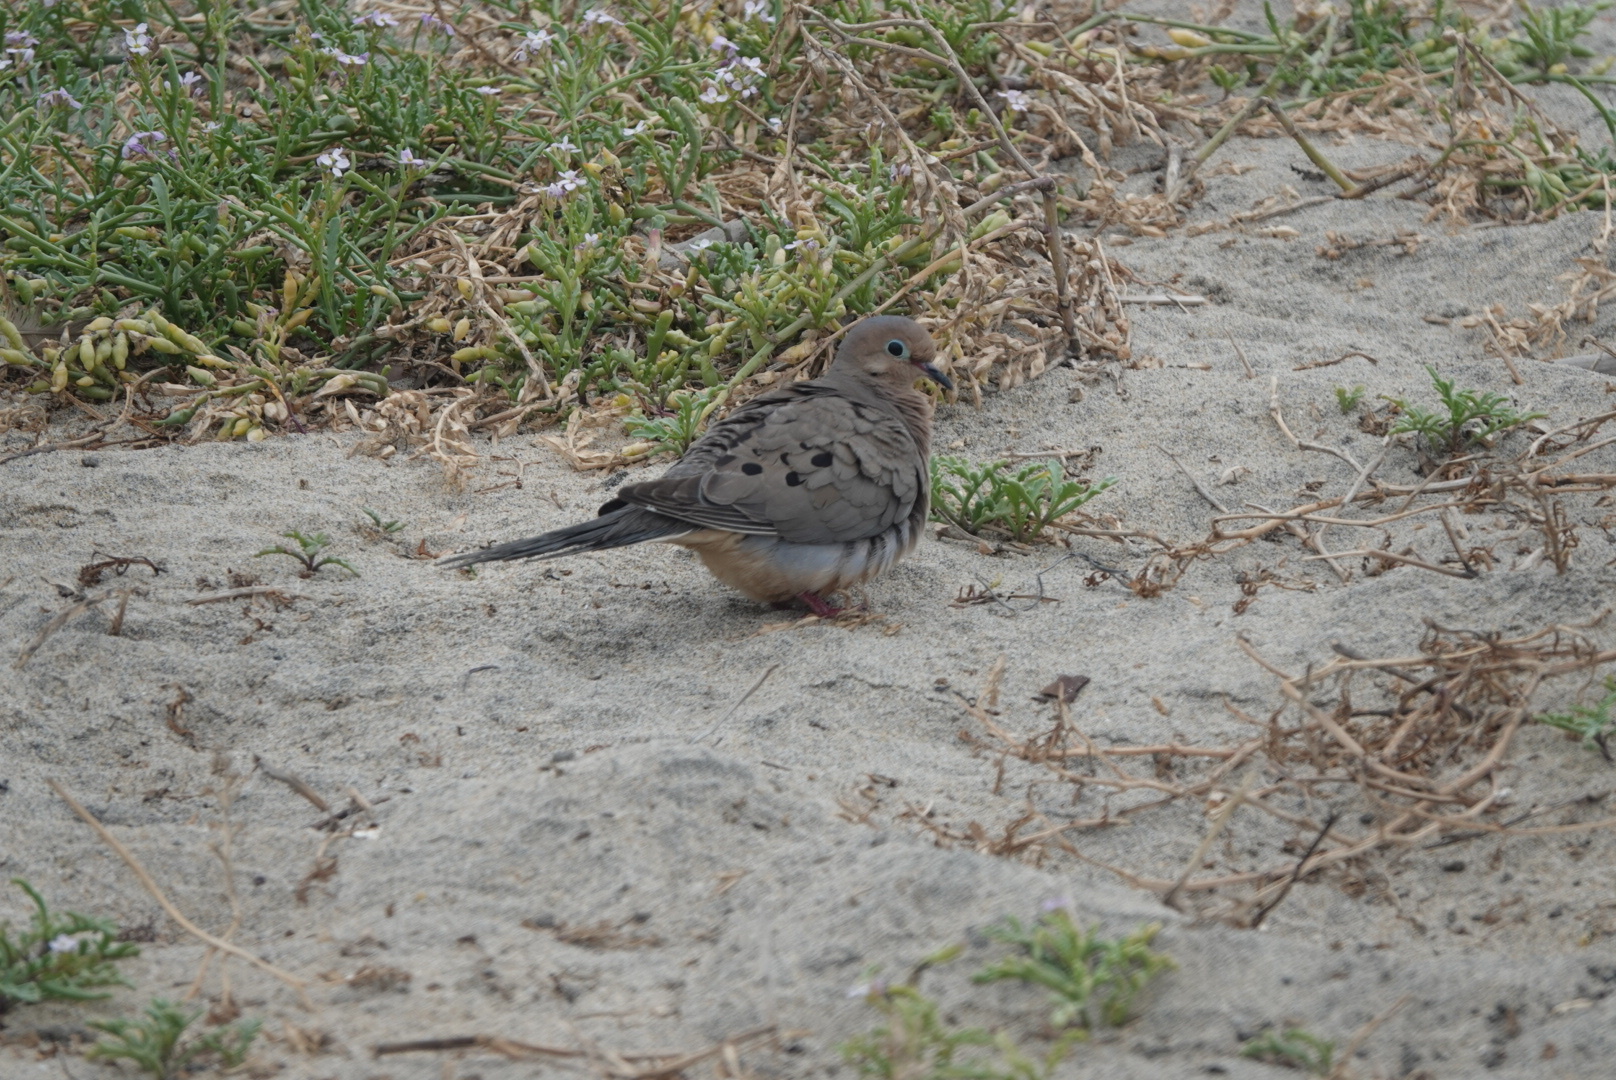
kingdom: Animalia
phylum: Chordata
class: Aves
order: Columbiformes
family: Columbidae
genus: Zenaida
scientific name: Zenaida macroura
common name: Mourning dove
